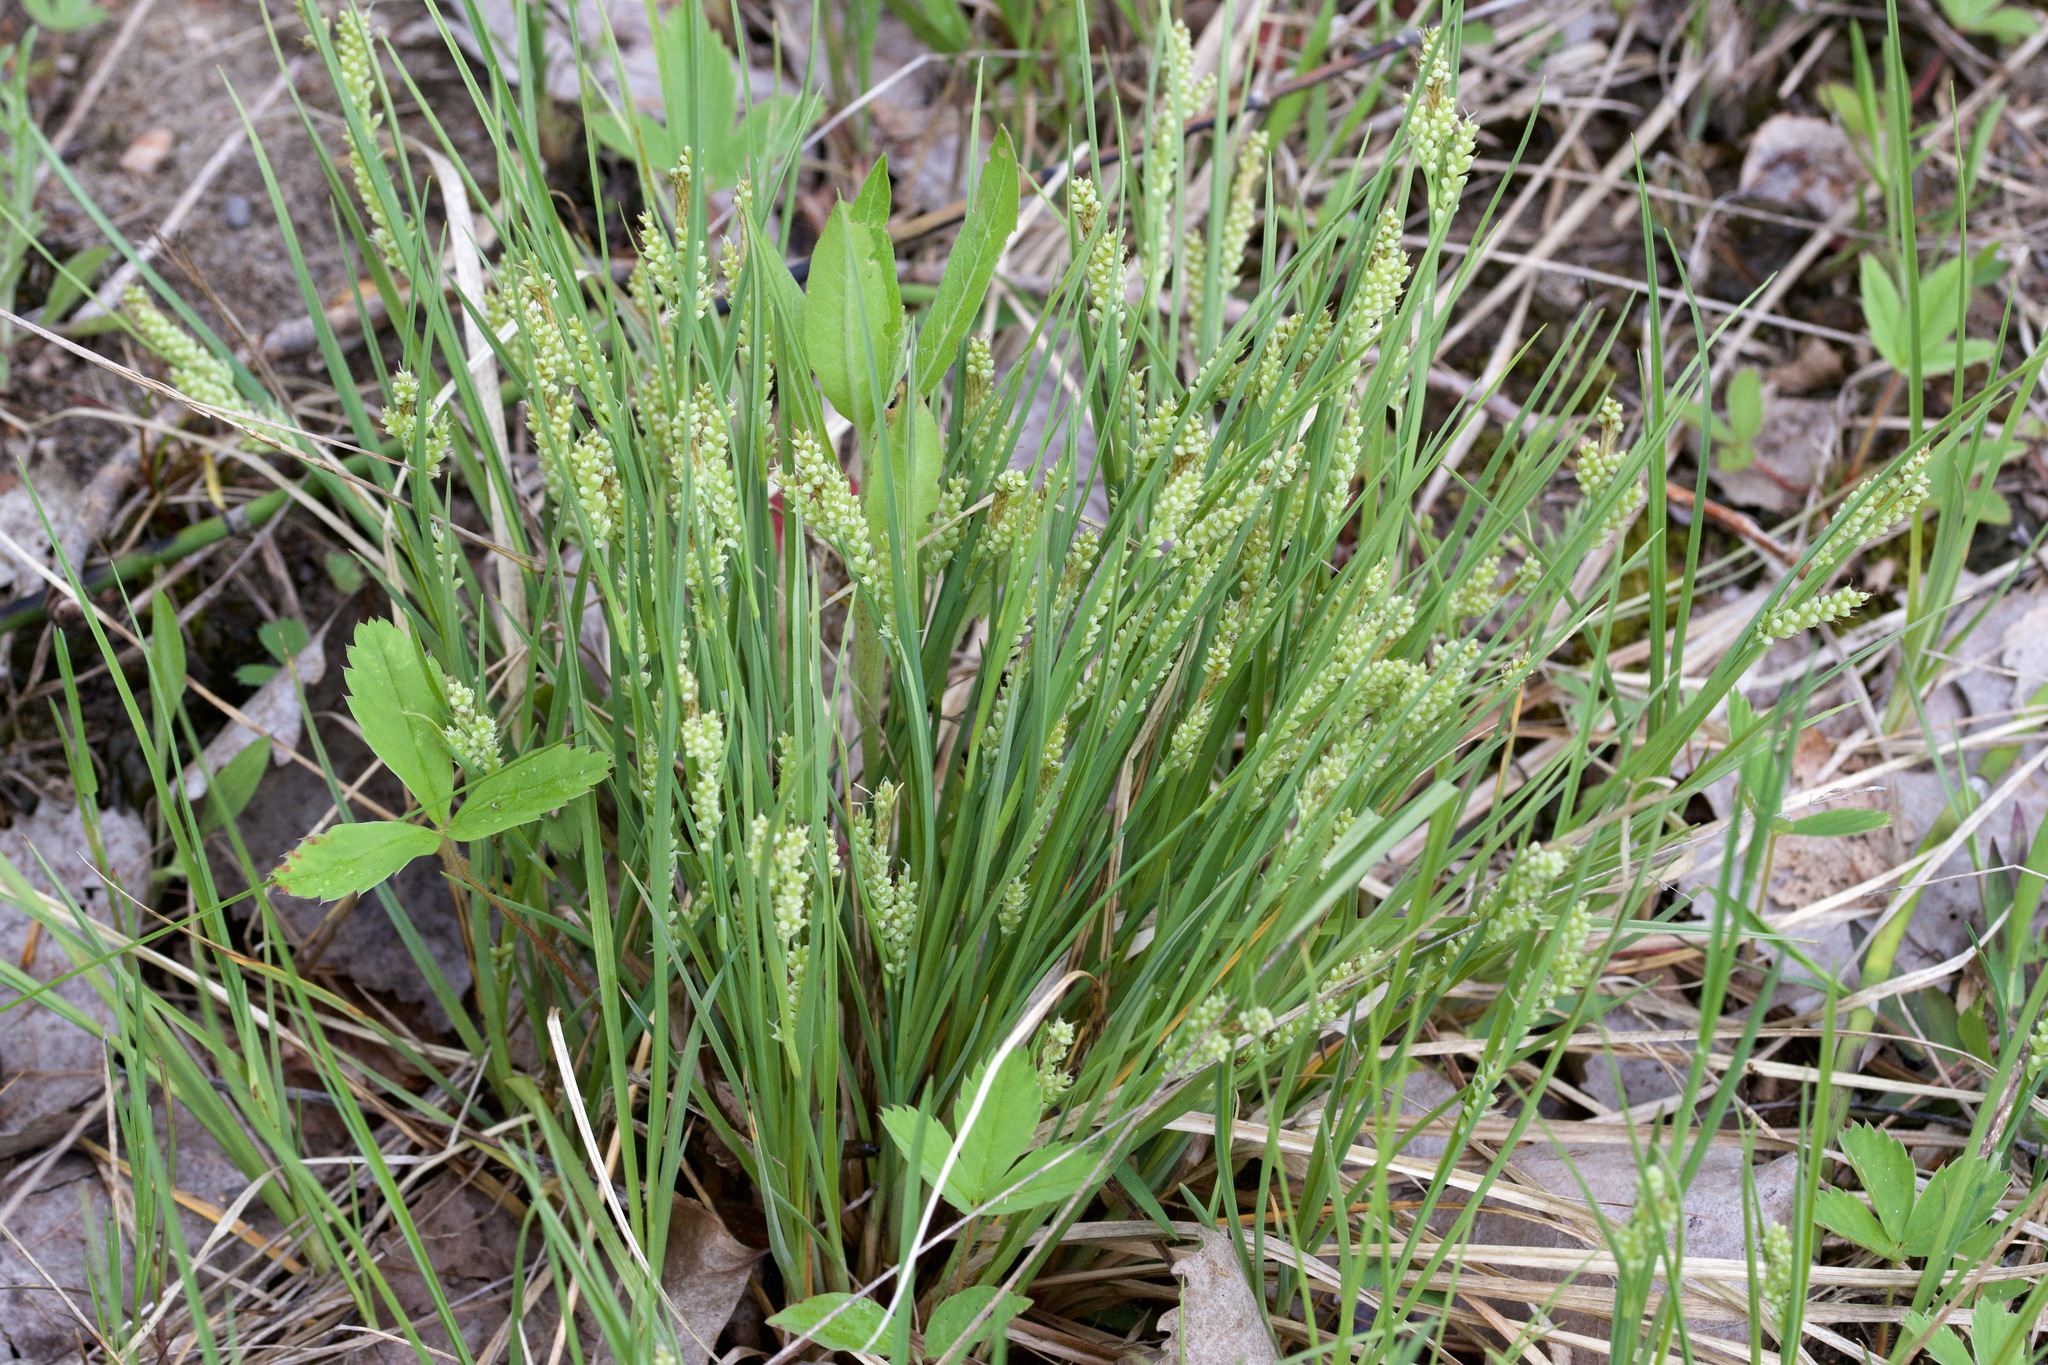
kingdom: Plantae
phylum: Tracheophyta
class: Liliopsida
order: Poales
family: Cyperaceae
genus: Carex
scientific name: Carex garberi
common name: Elk sedge
